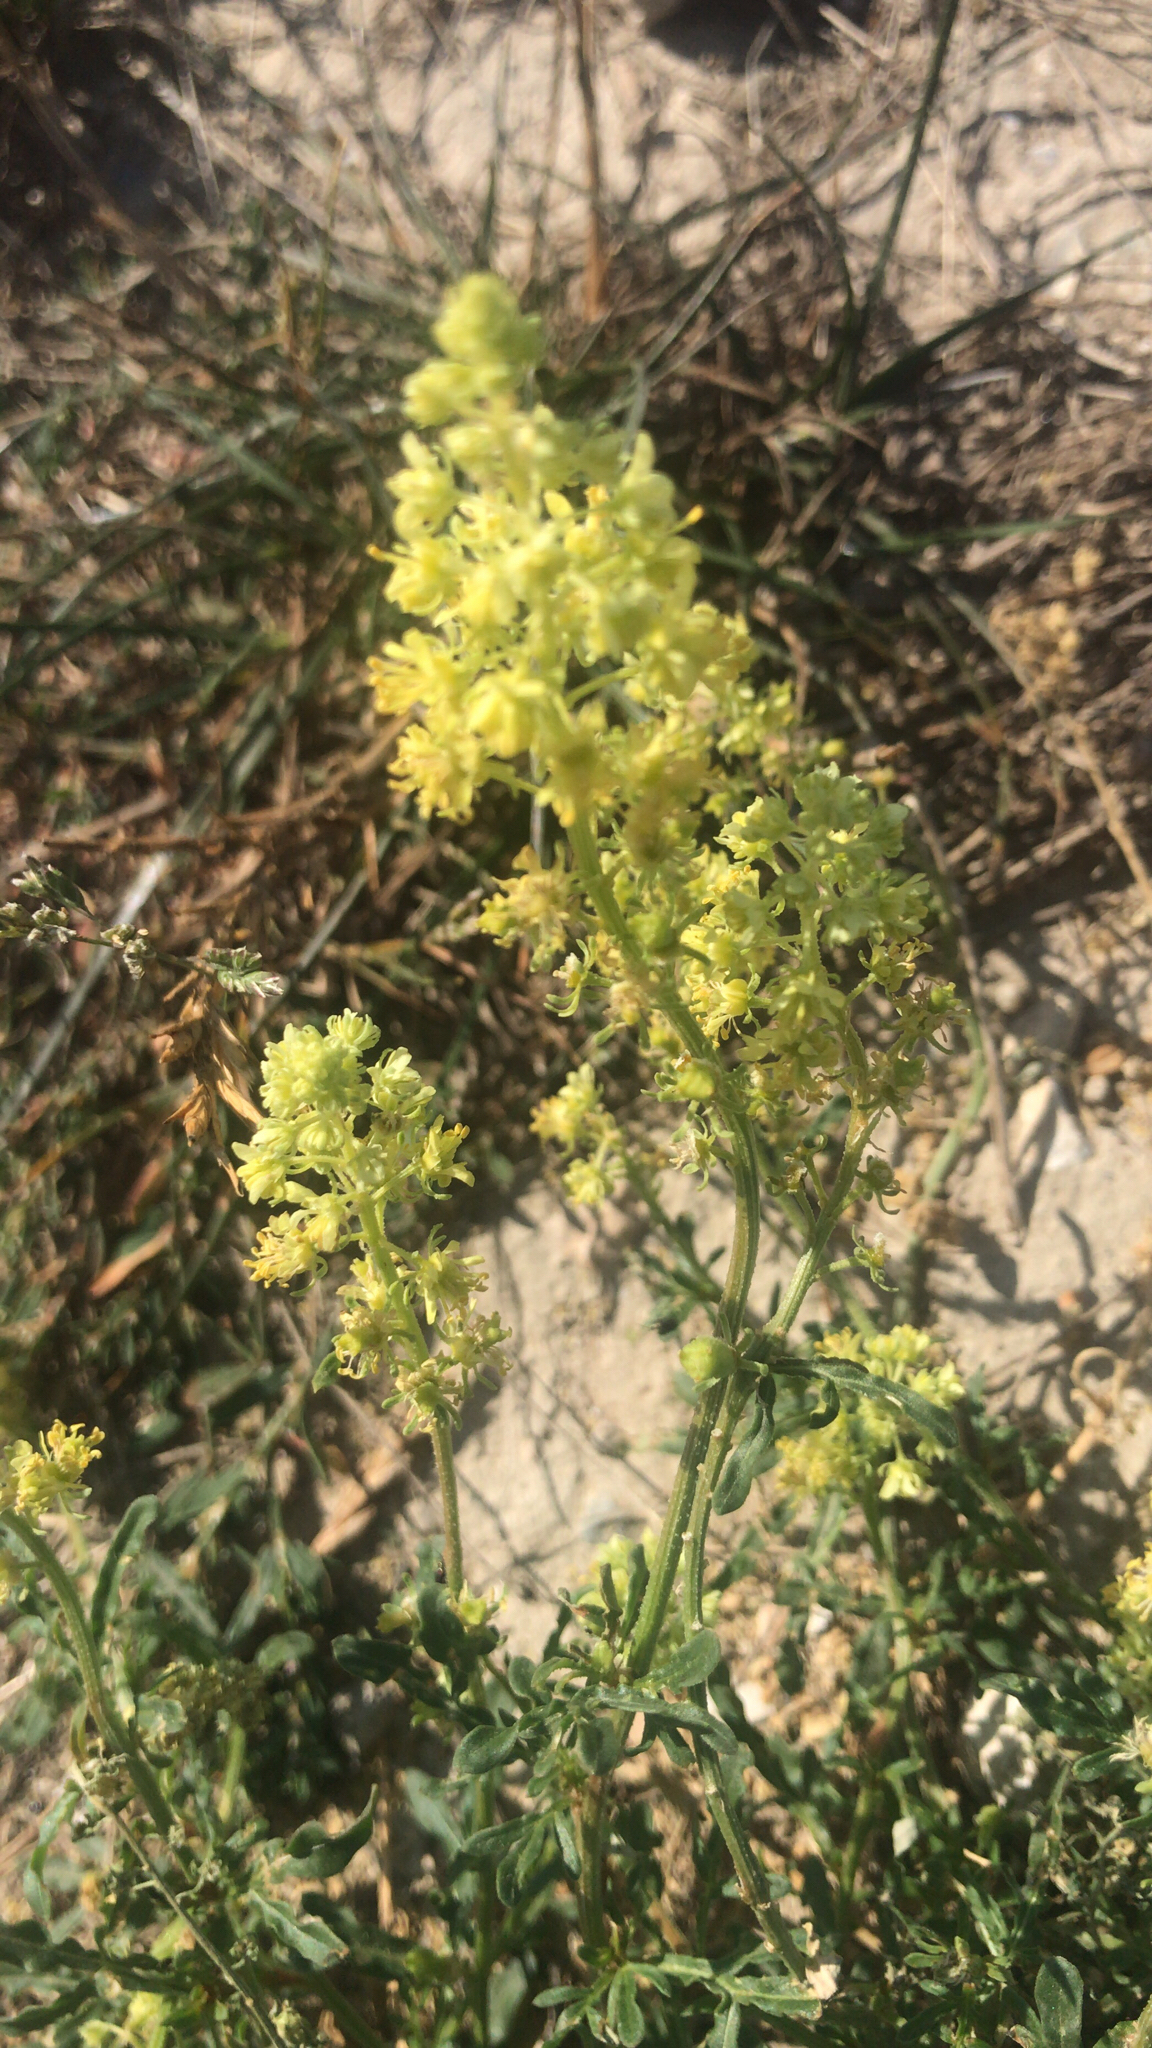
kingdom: Plantae
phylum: Tracheophyta
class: Magnoliopsida
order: Brassicales
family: Resedaceae
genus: Reseda
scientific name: Reseda lutea
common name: Wild mignonette
